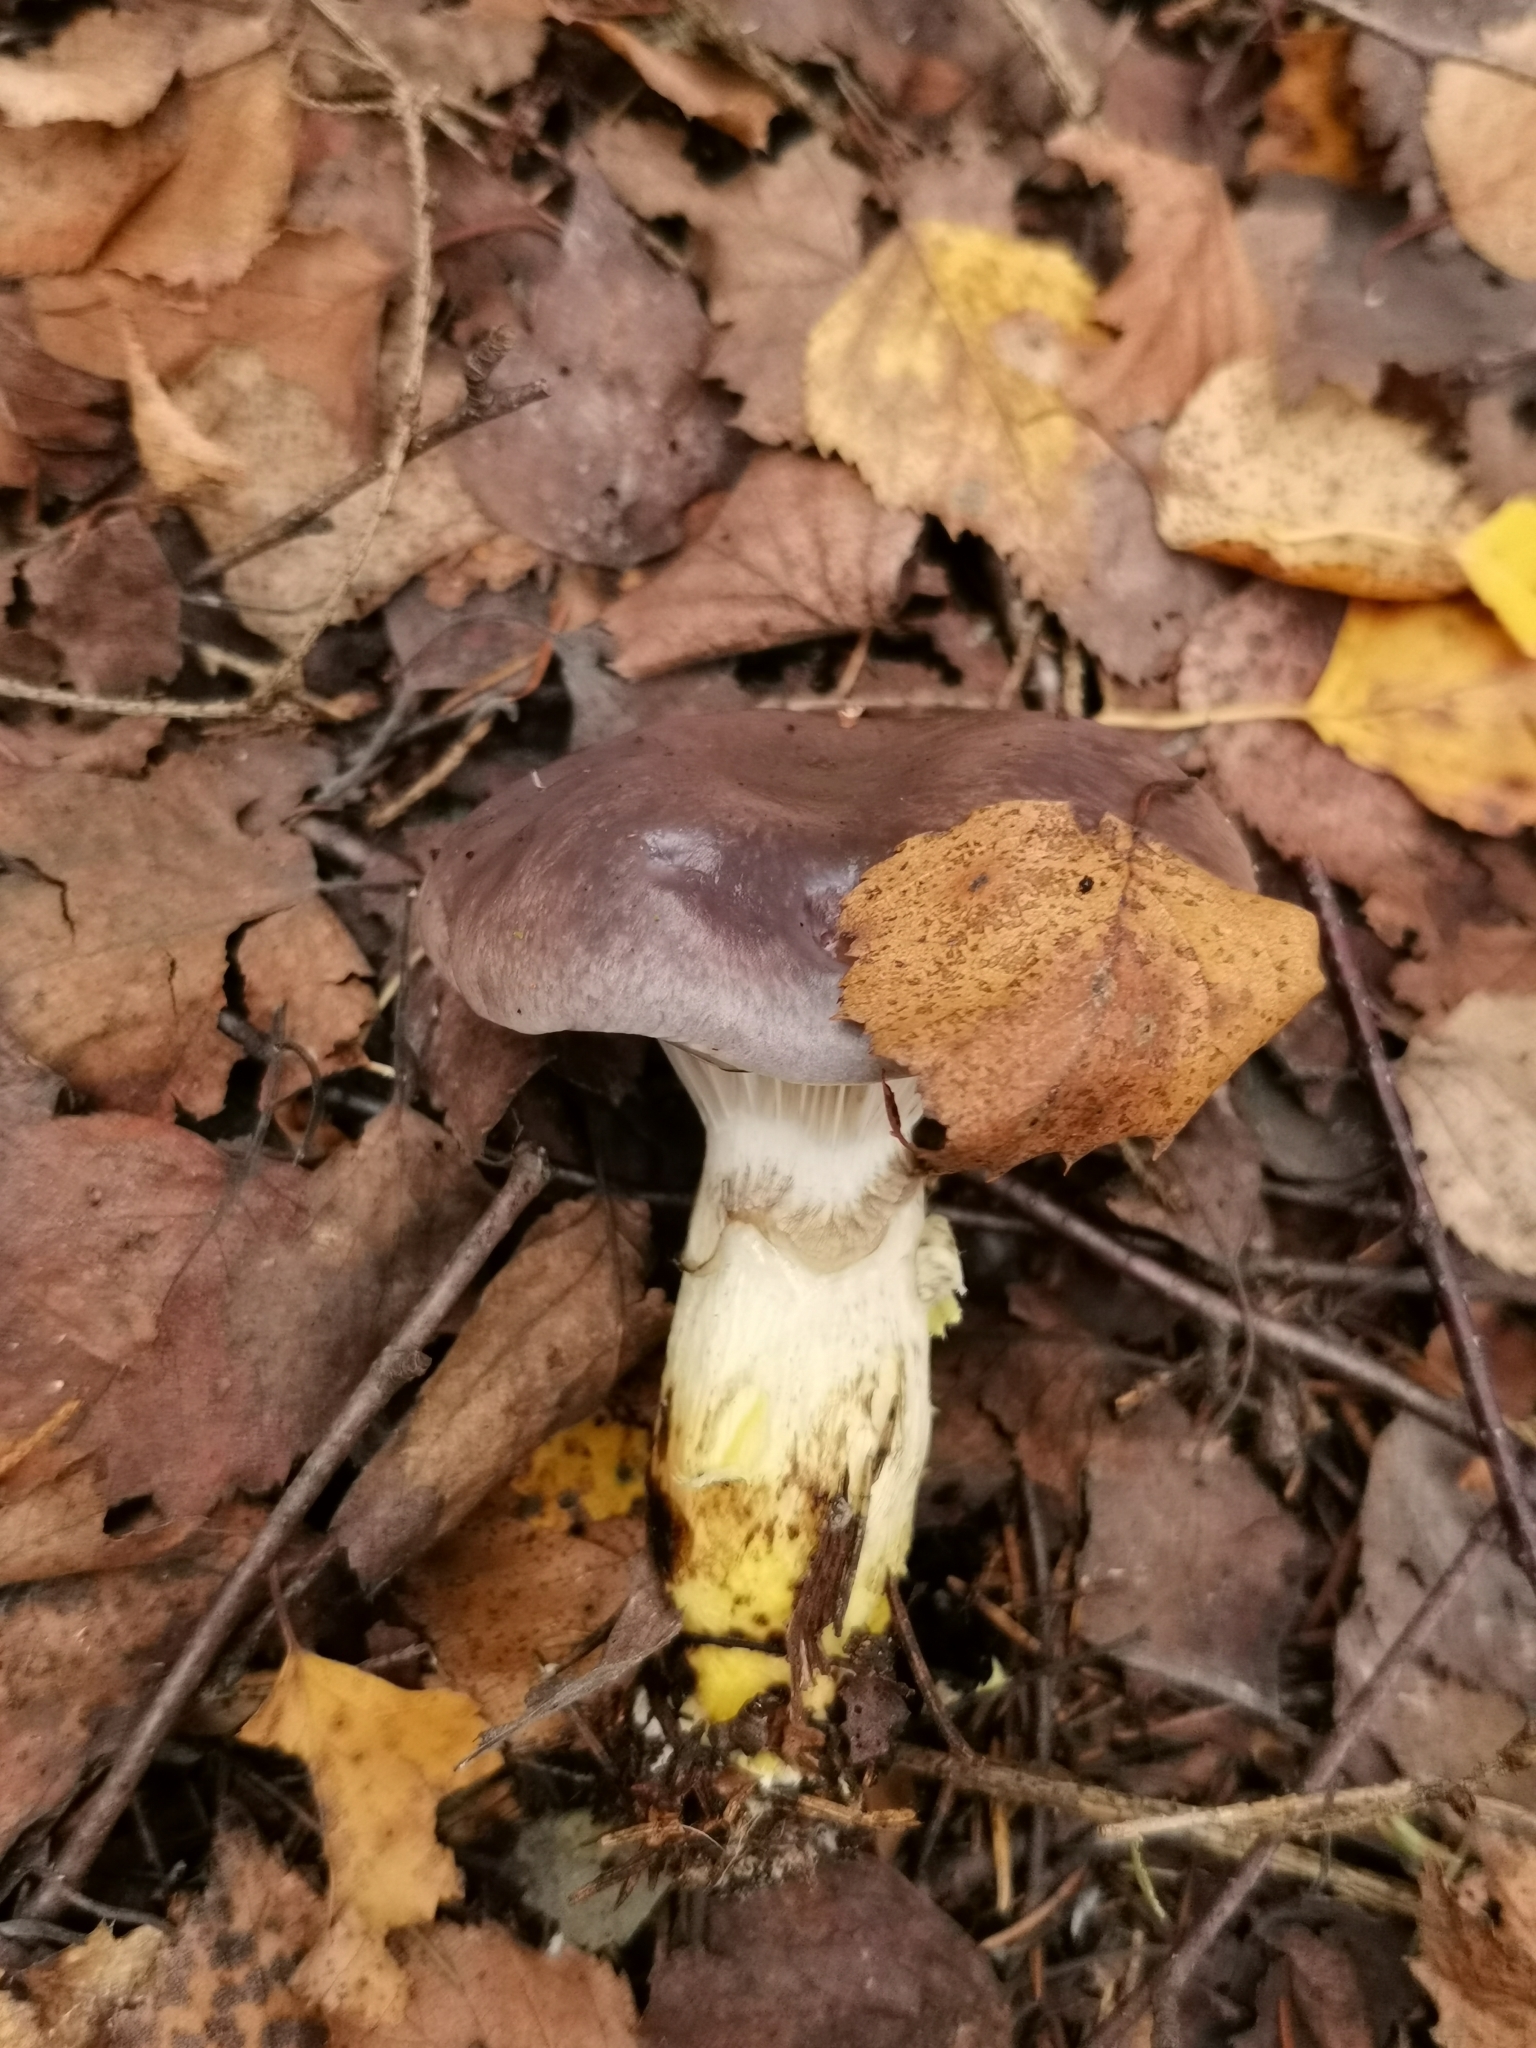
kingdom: Fungi
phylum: Basidiomycota
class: Agaricomycetes
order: Boletales
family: Gomphidiaceae
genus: Gomphidius
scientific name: Gomphidius glutinosus
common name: Slimy spike
